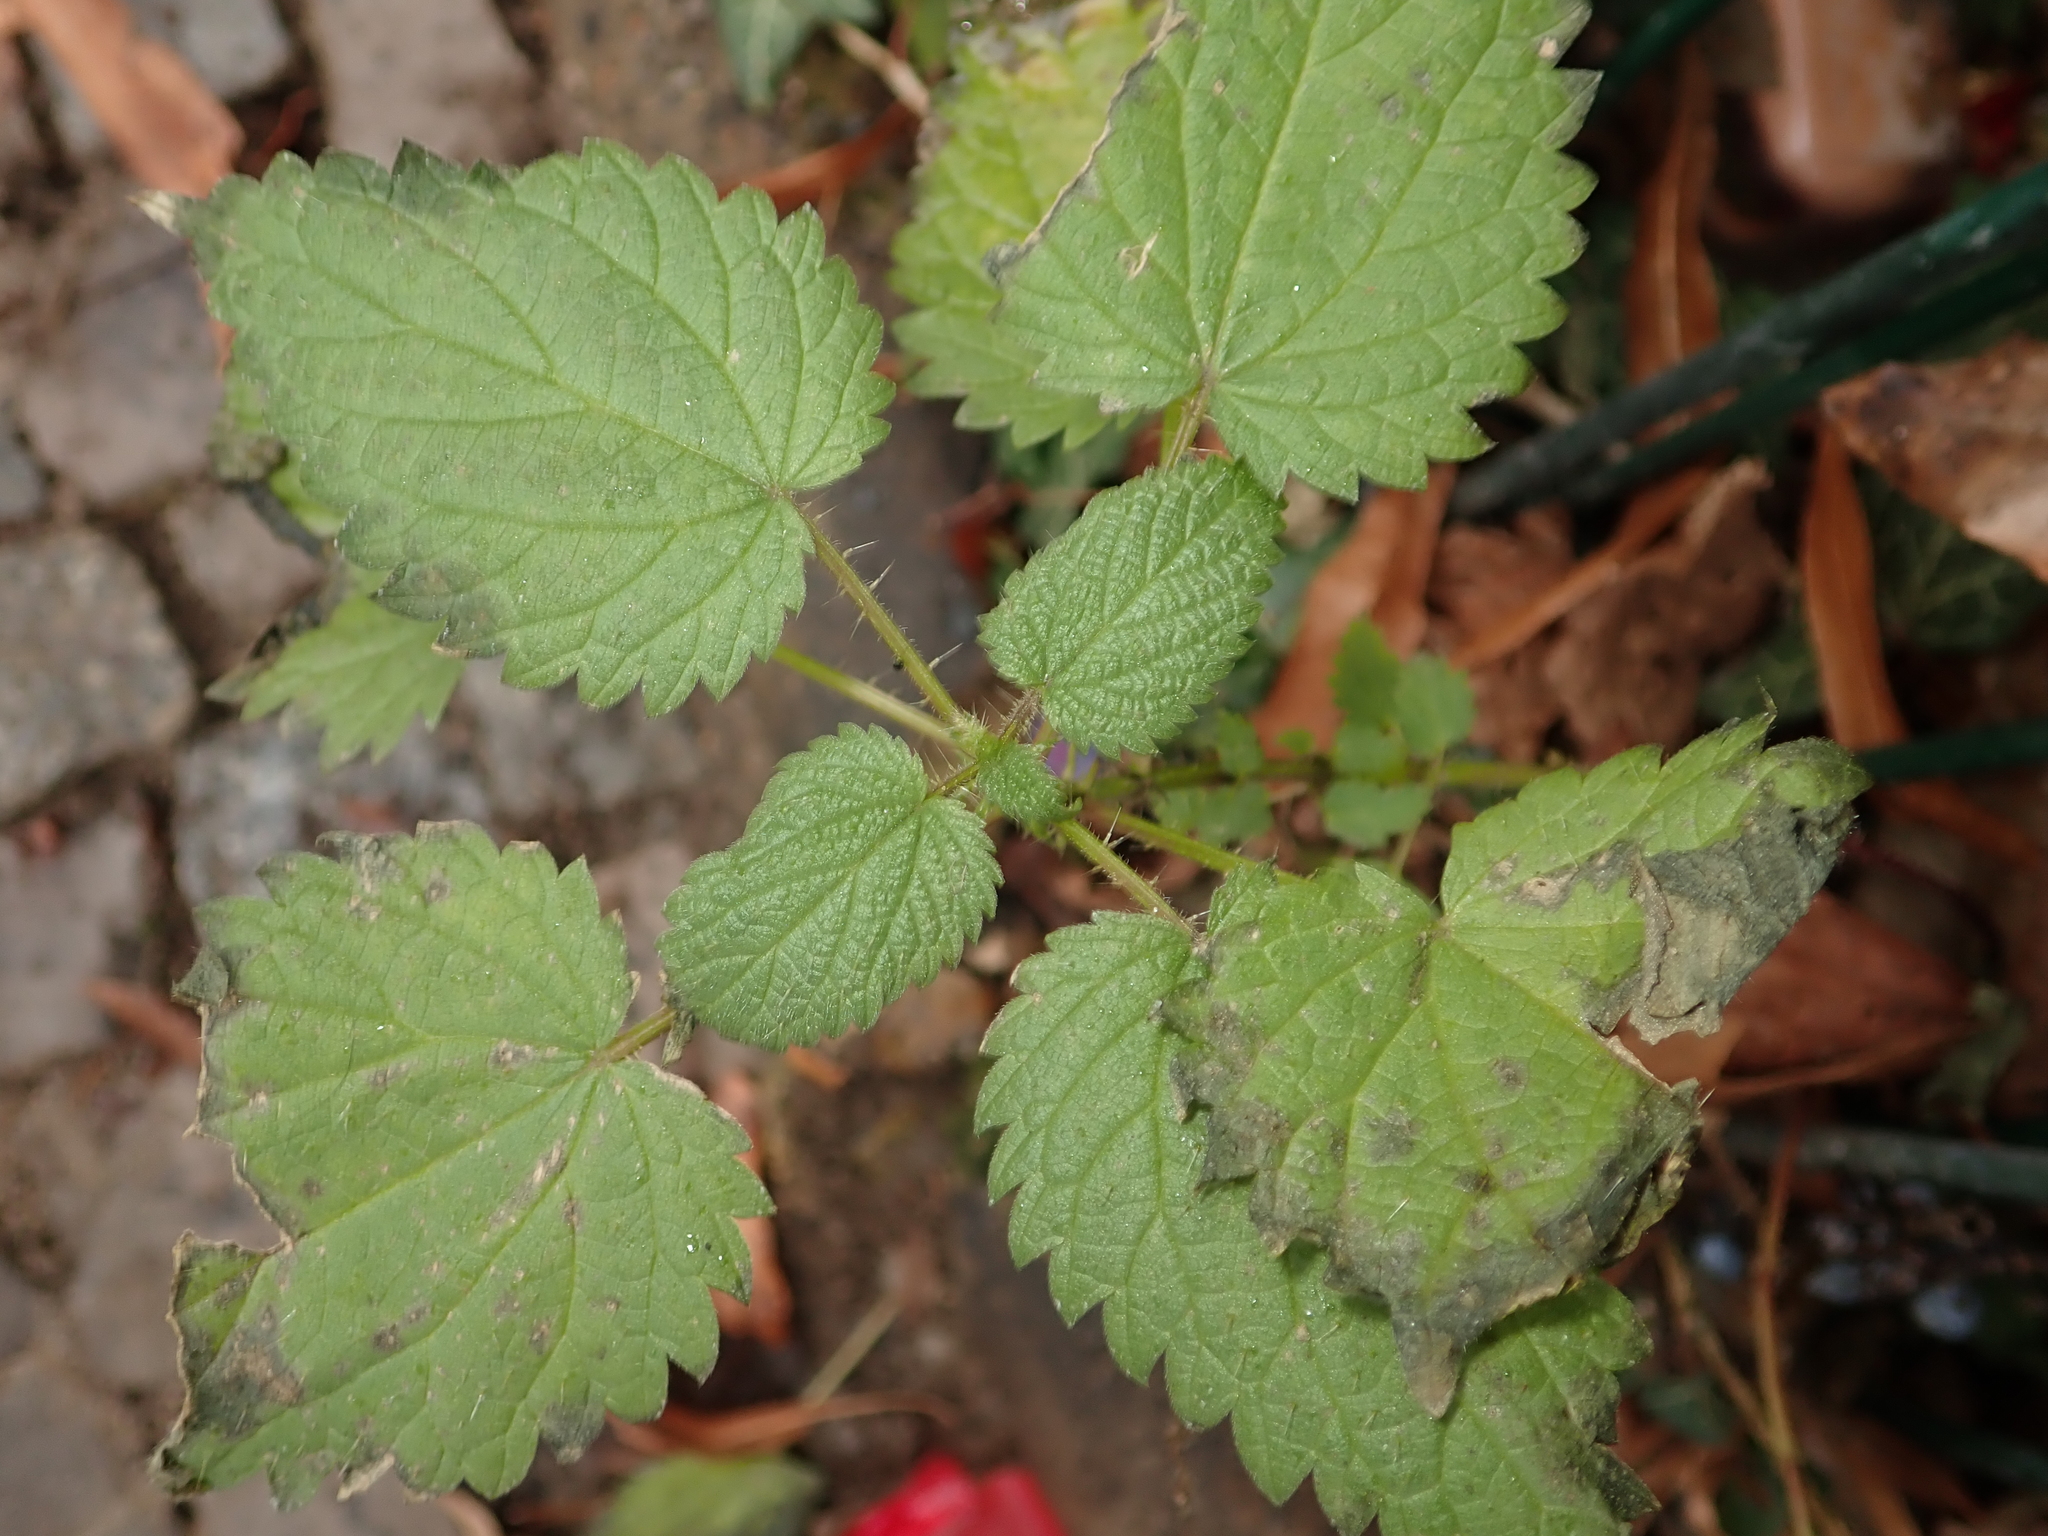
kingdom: Plantae
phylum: Tracheophyta
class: Magnoliopsida
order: Rosales
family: Urticaceae
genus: Urtica
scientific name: Urtica dioica
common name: Common nettle
